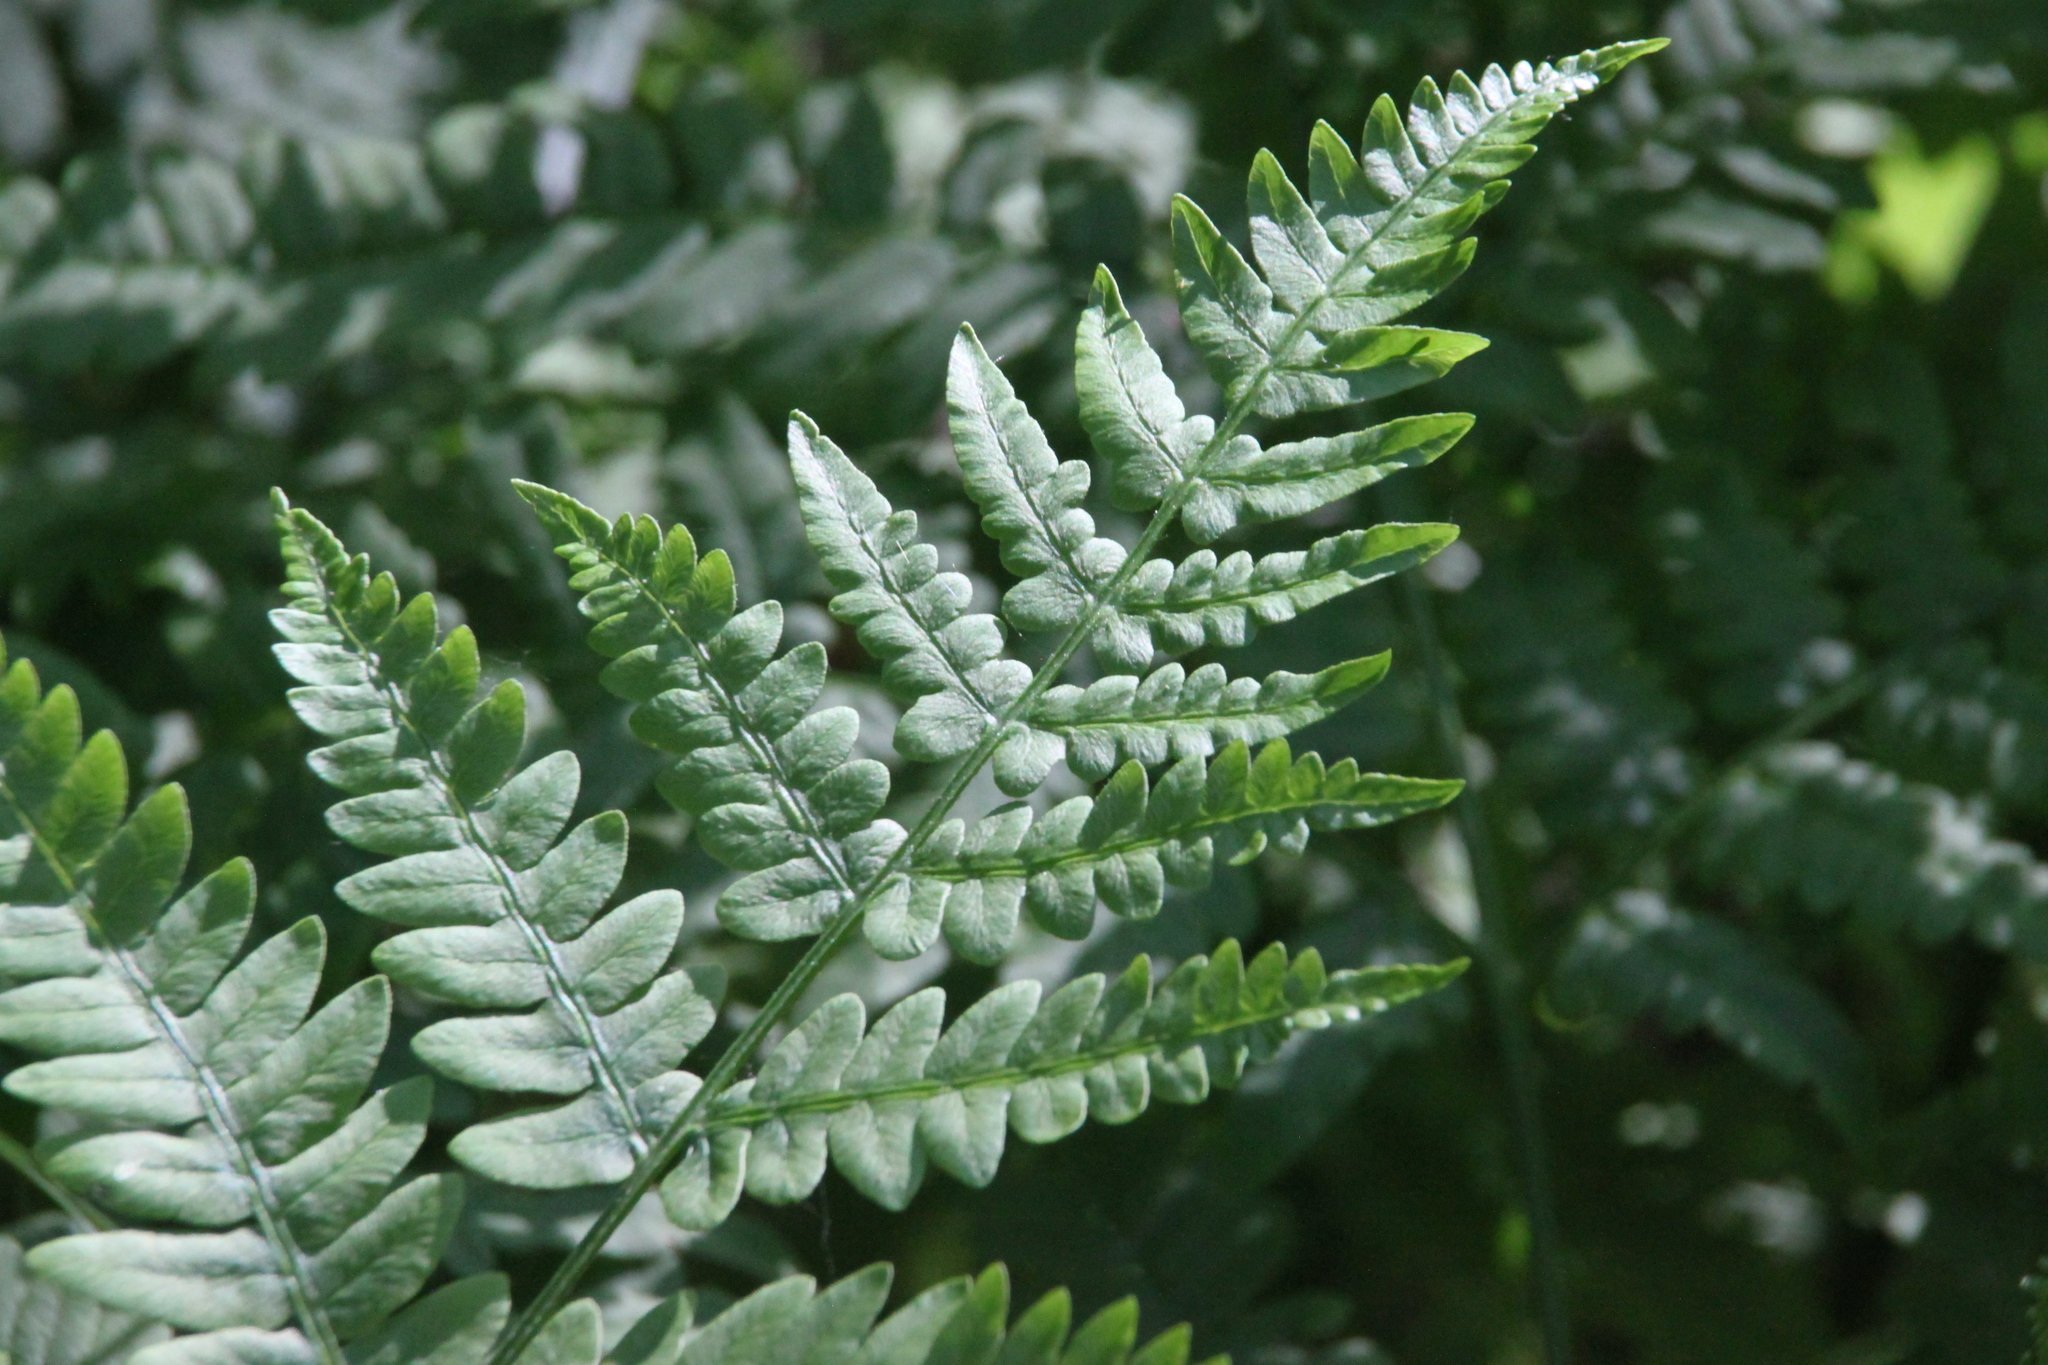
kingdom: Plantae
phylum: Tracheophyta
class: Polypodiopsida
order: Polypodiales
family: Dennstaedtiaceae
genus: Pteridium
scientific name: Pteridium aquilinum
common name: Bracken
